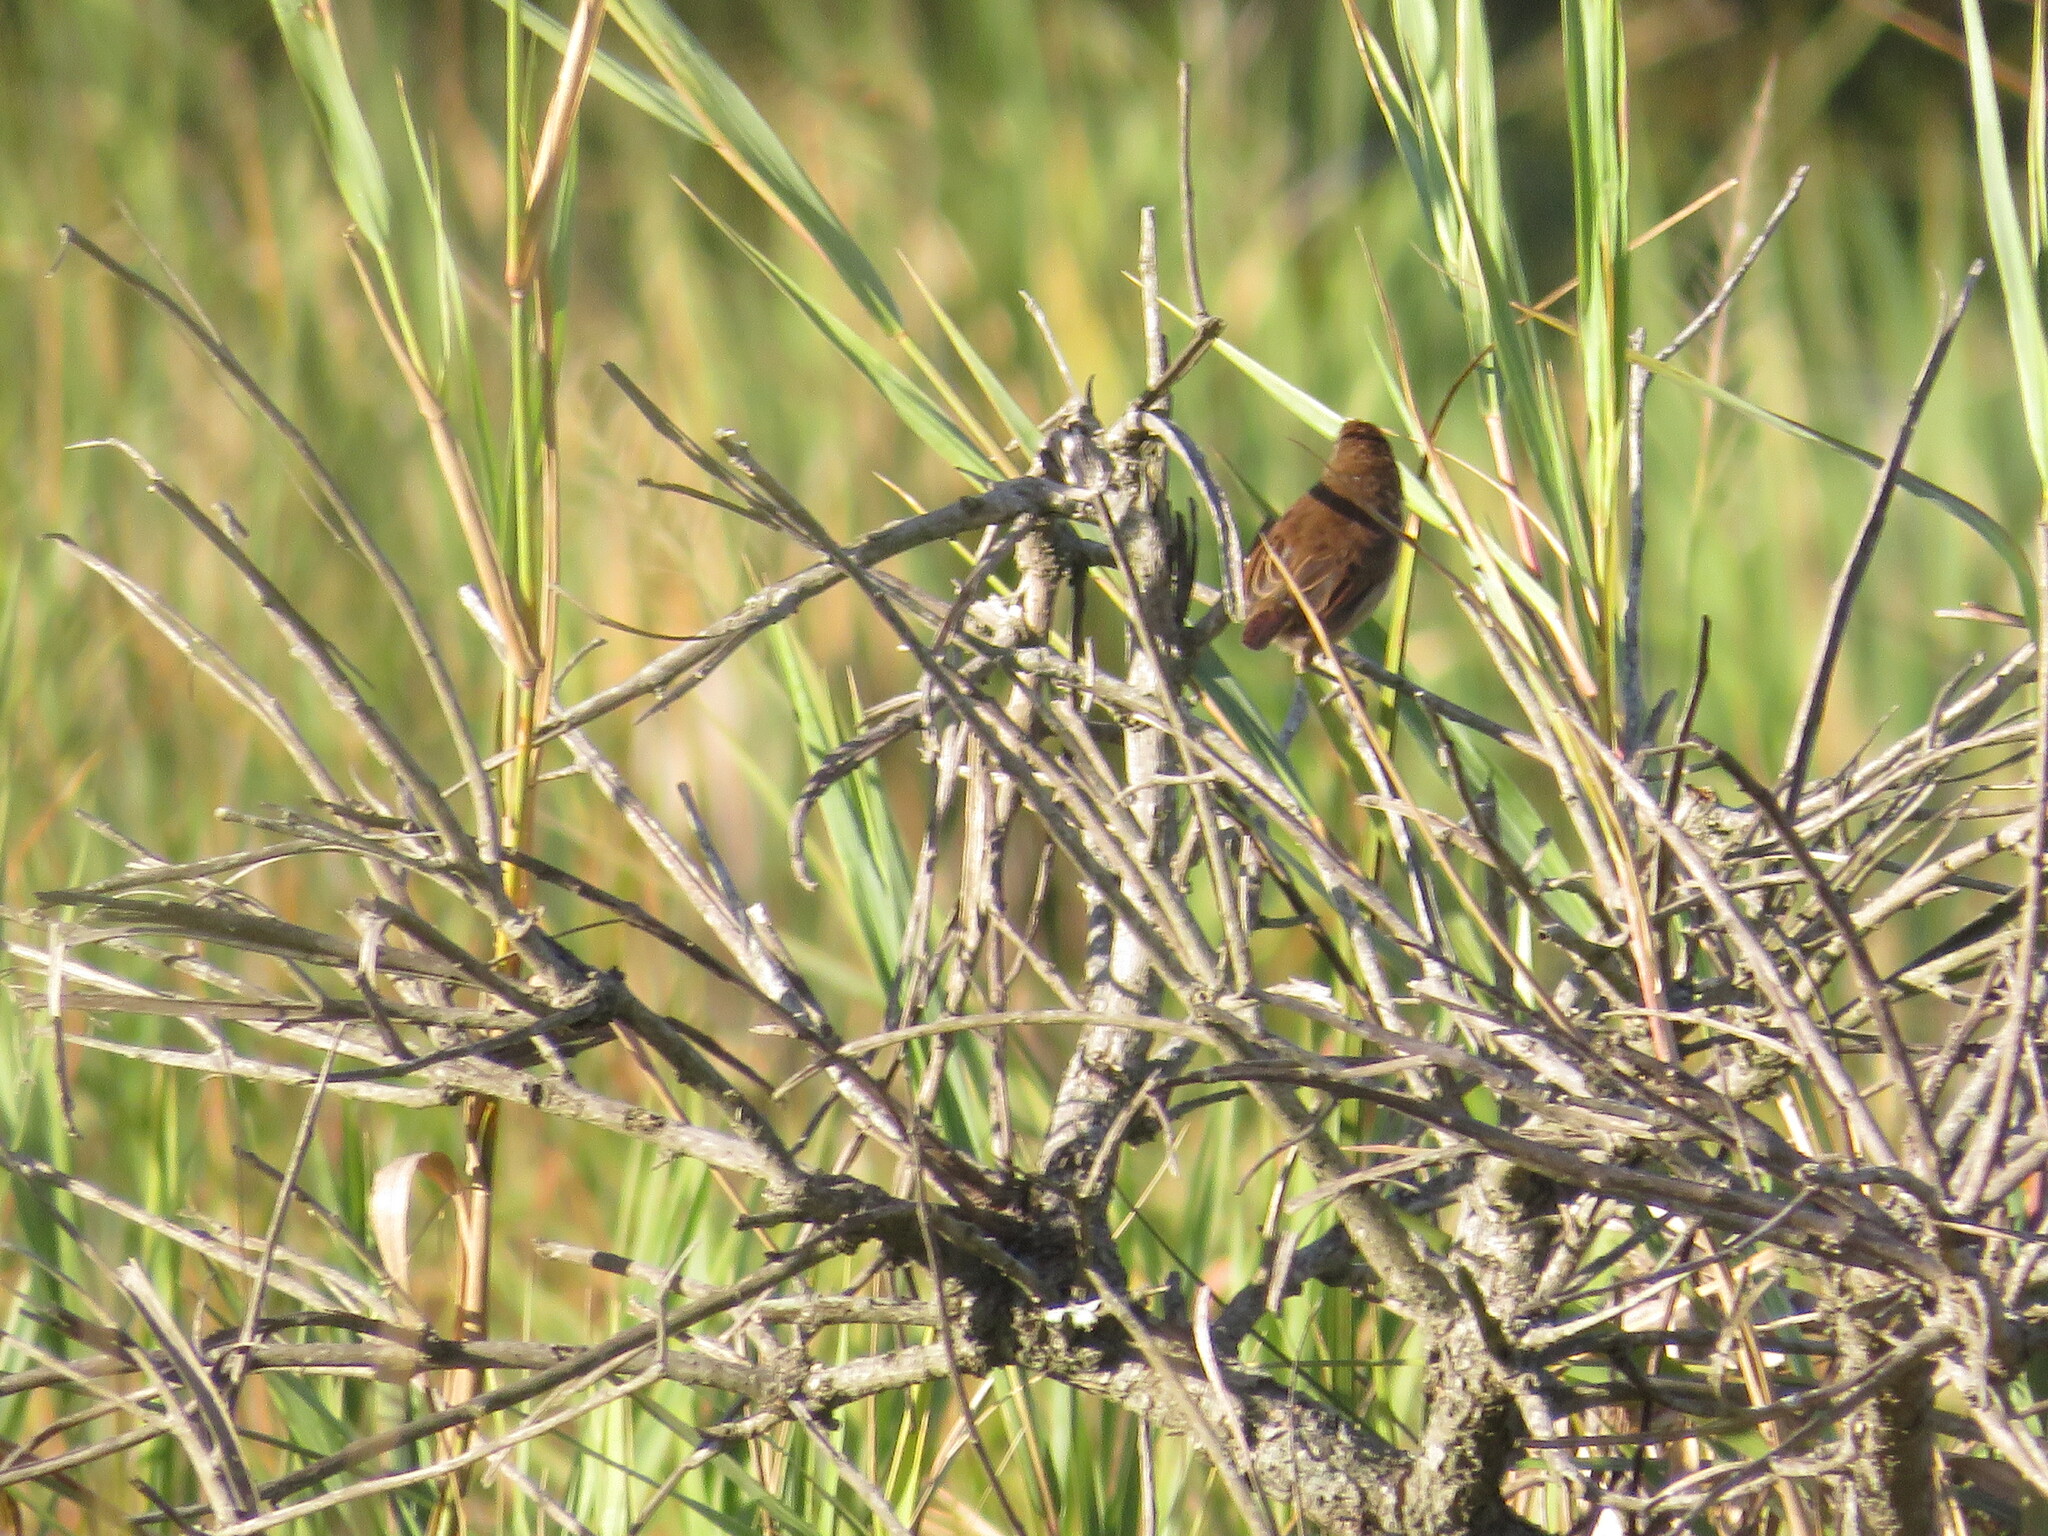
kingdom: Animalia
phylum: Chordata
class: Aves
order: Passeriformes
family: Thamnophilidae
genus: Thamnophilus
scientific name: Thamnophilus ruficapillus
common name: Rufous-capped antshrike
